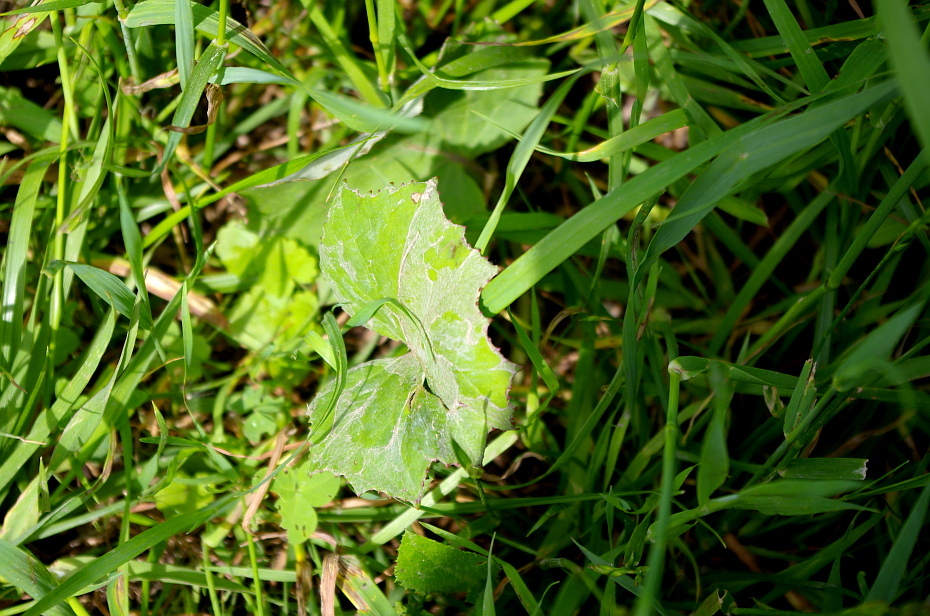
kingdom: Plantae
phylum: Tracheophyta
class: Magnoliopsida
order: Asterales
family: Asteraceae
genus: Tussilago
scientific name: Tussilago farfara
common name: Coltsfoot
